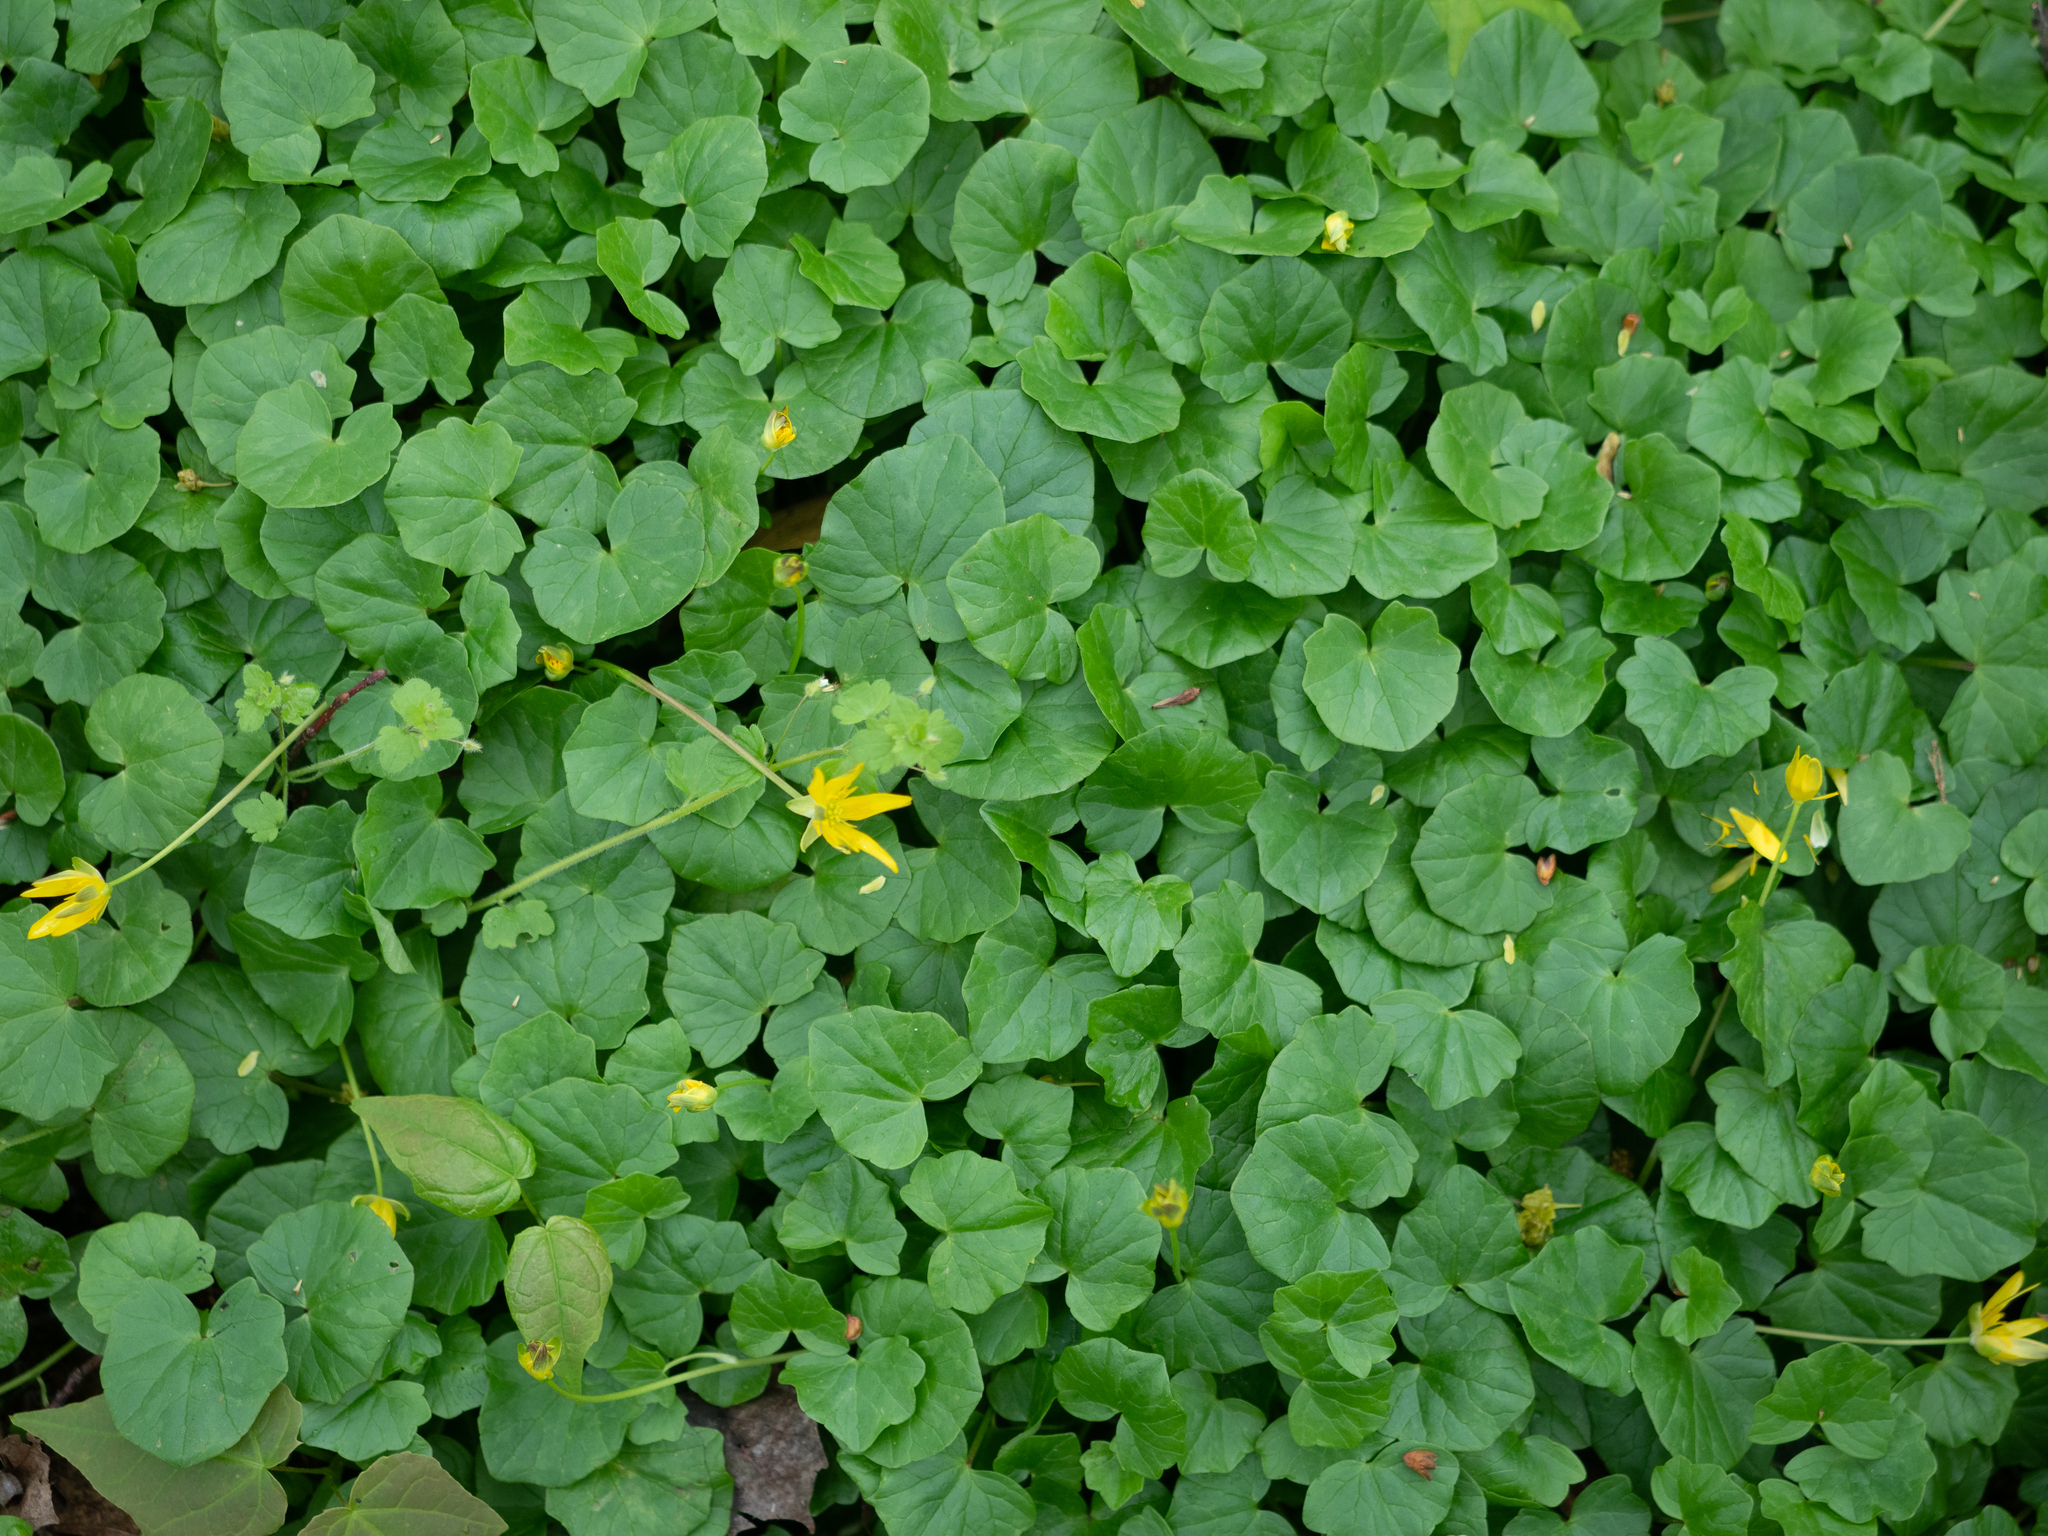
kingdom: Plantae
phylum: Tracheophyta
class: Magnoliopsida
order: Ranunculales
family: Ranunculaceae
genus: Ficaria
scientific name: Ficaria verna
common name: Lesser celandine
